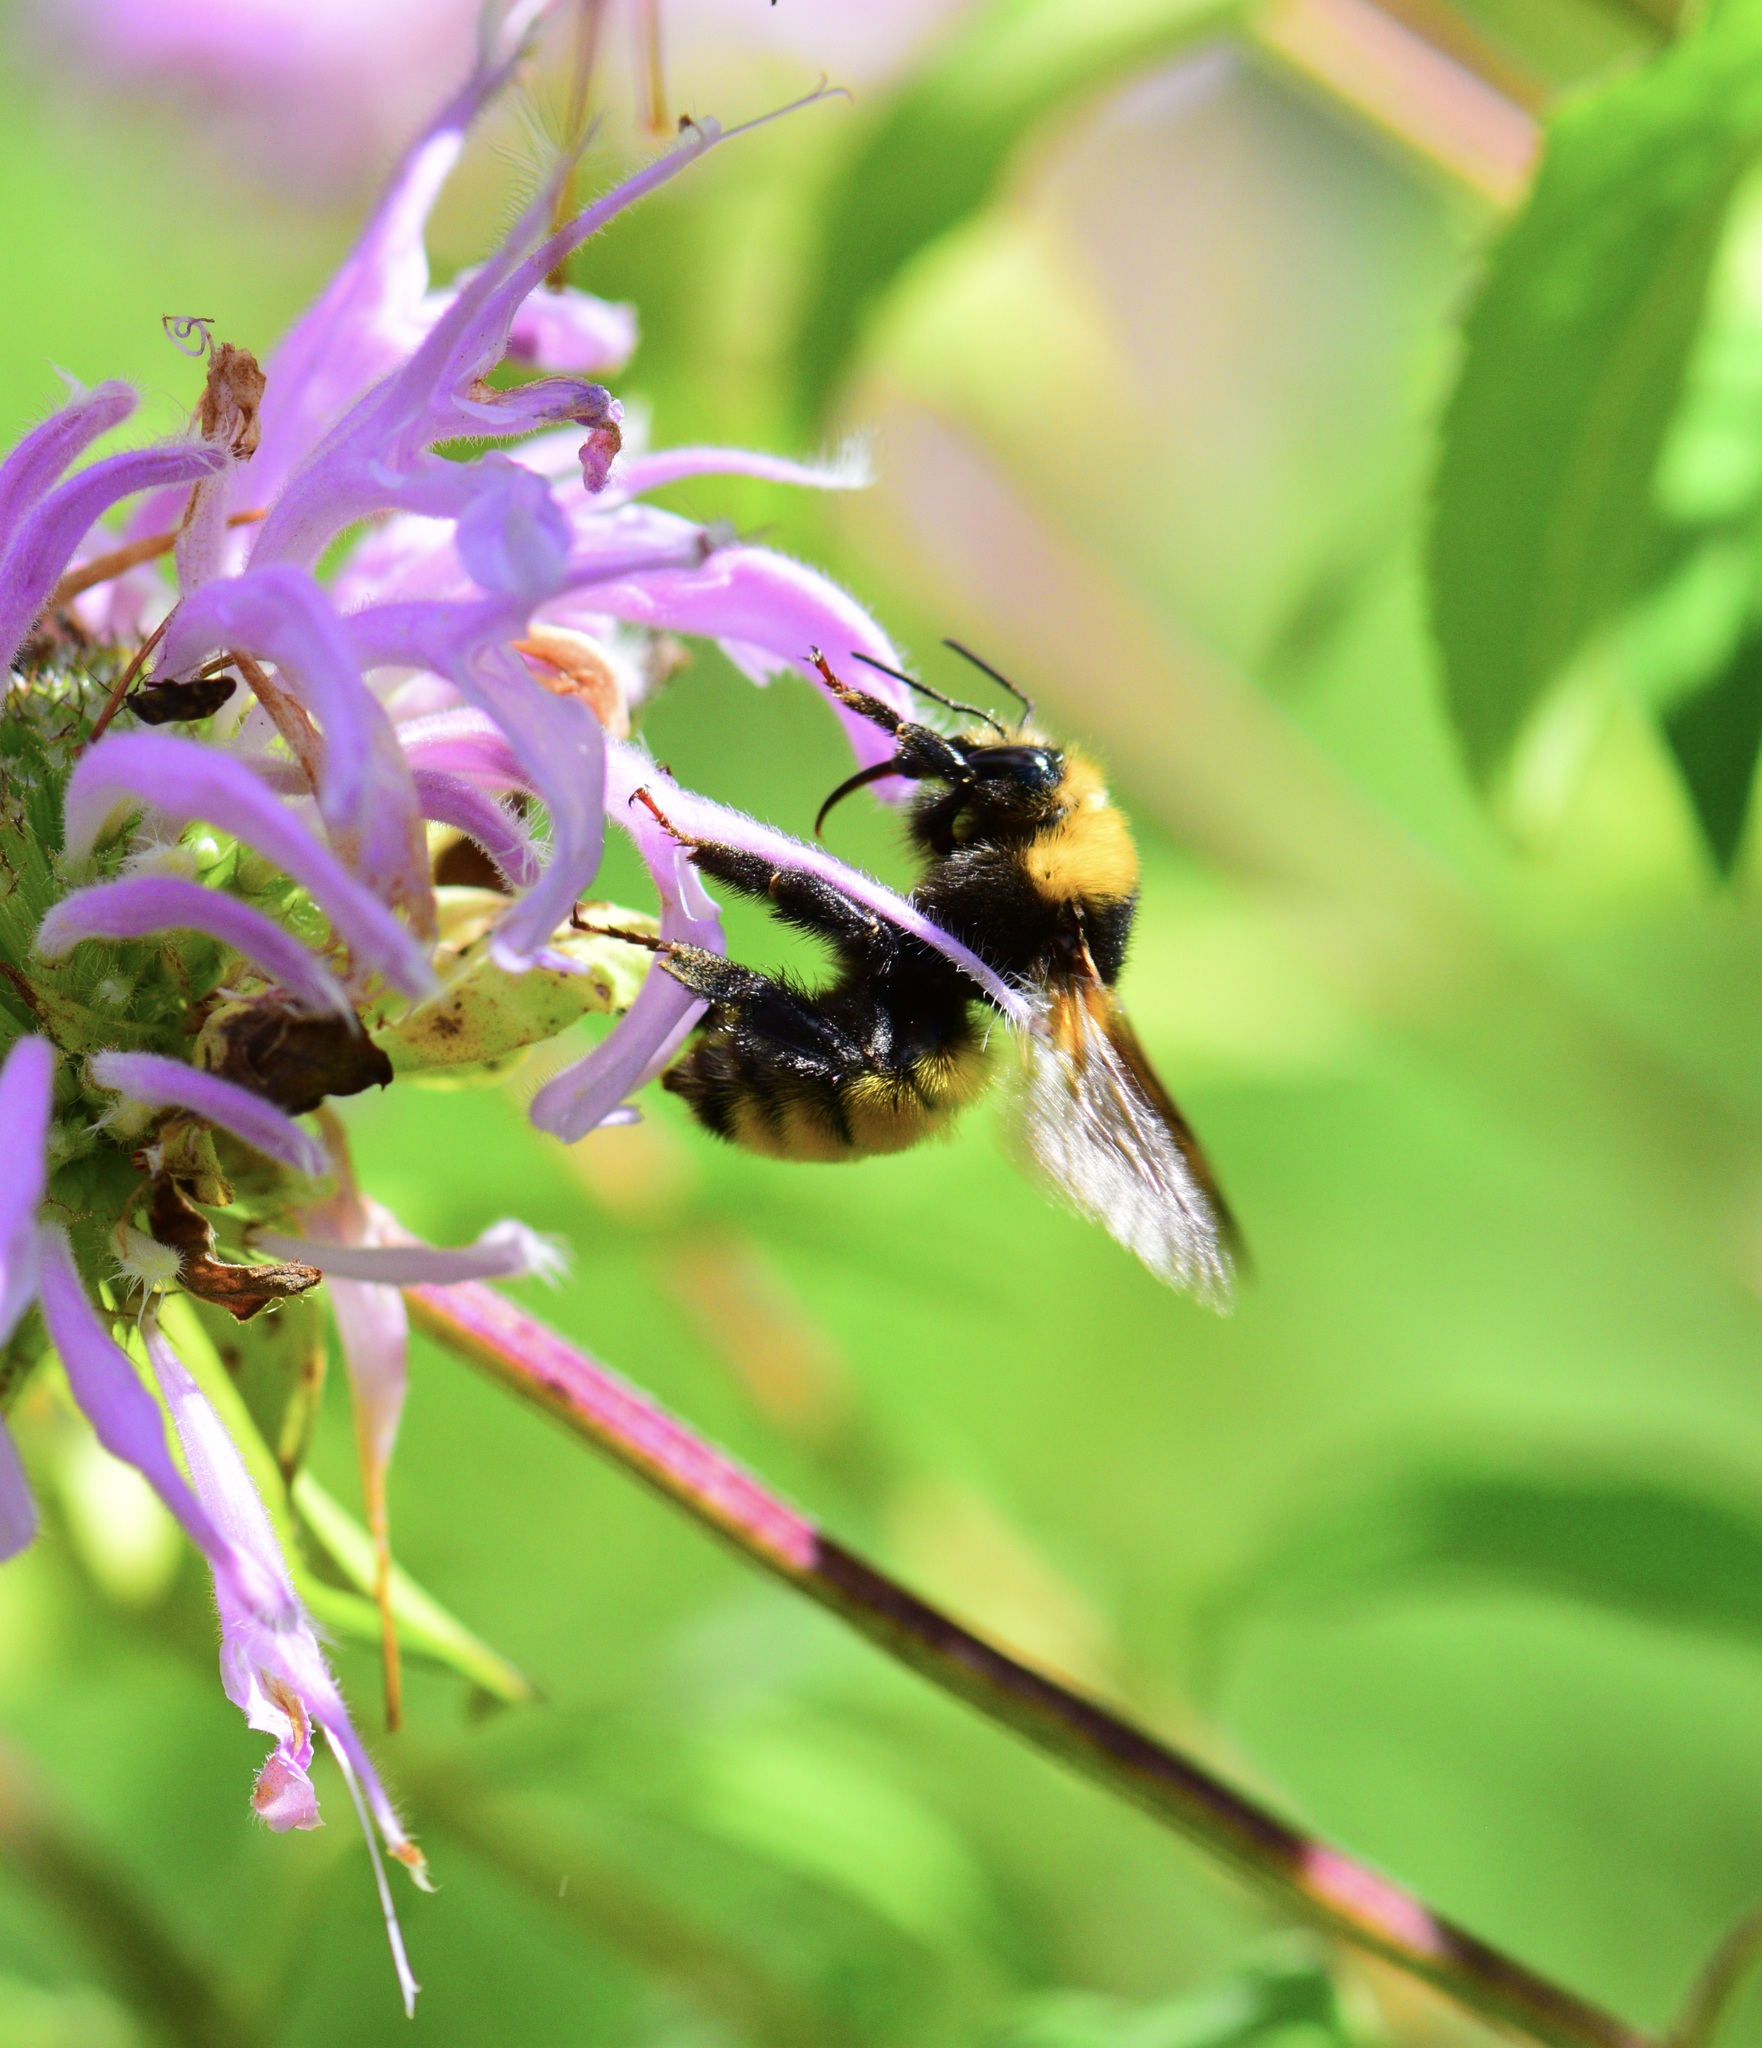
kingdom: Animalia
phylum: Arthropoda
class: Insecta
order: Hymenoptera
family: Apidae
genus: Bombus
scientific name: Bombus borealis
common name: Northern amber bumble bee
